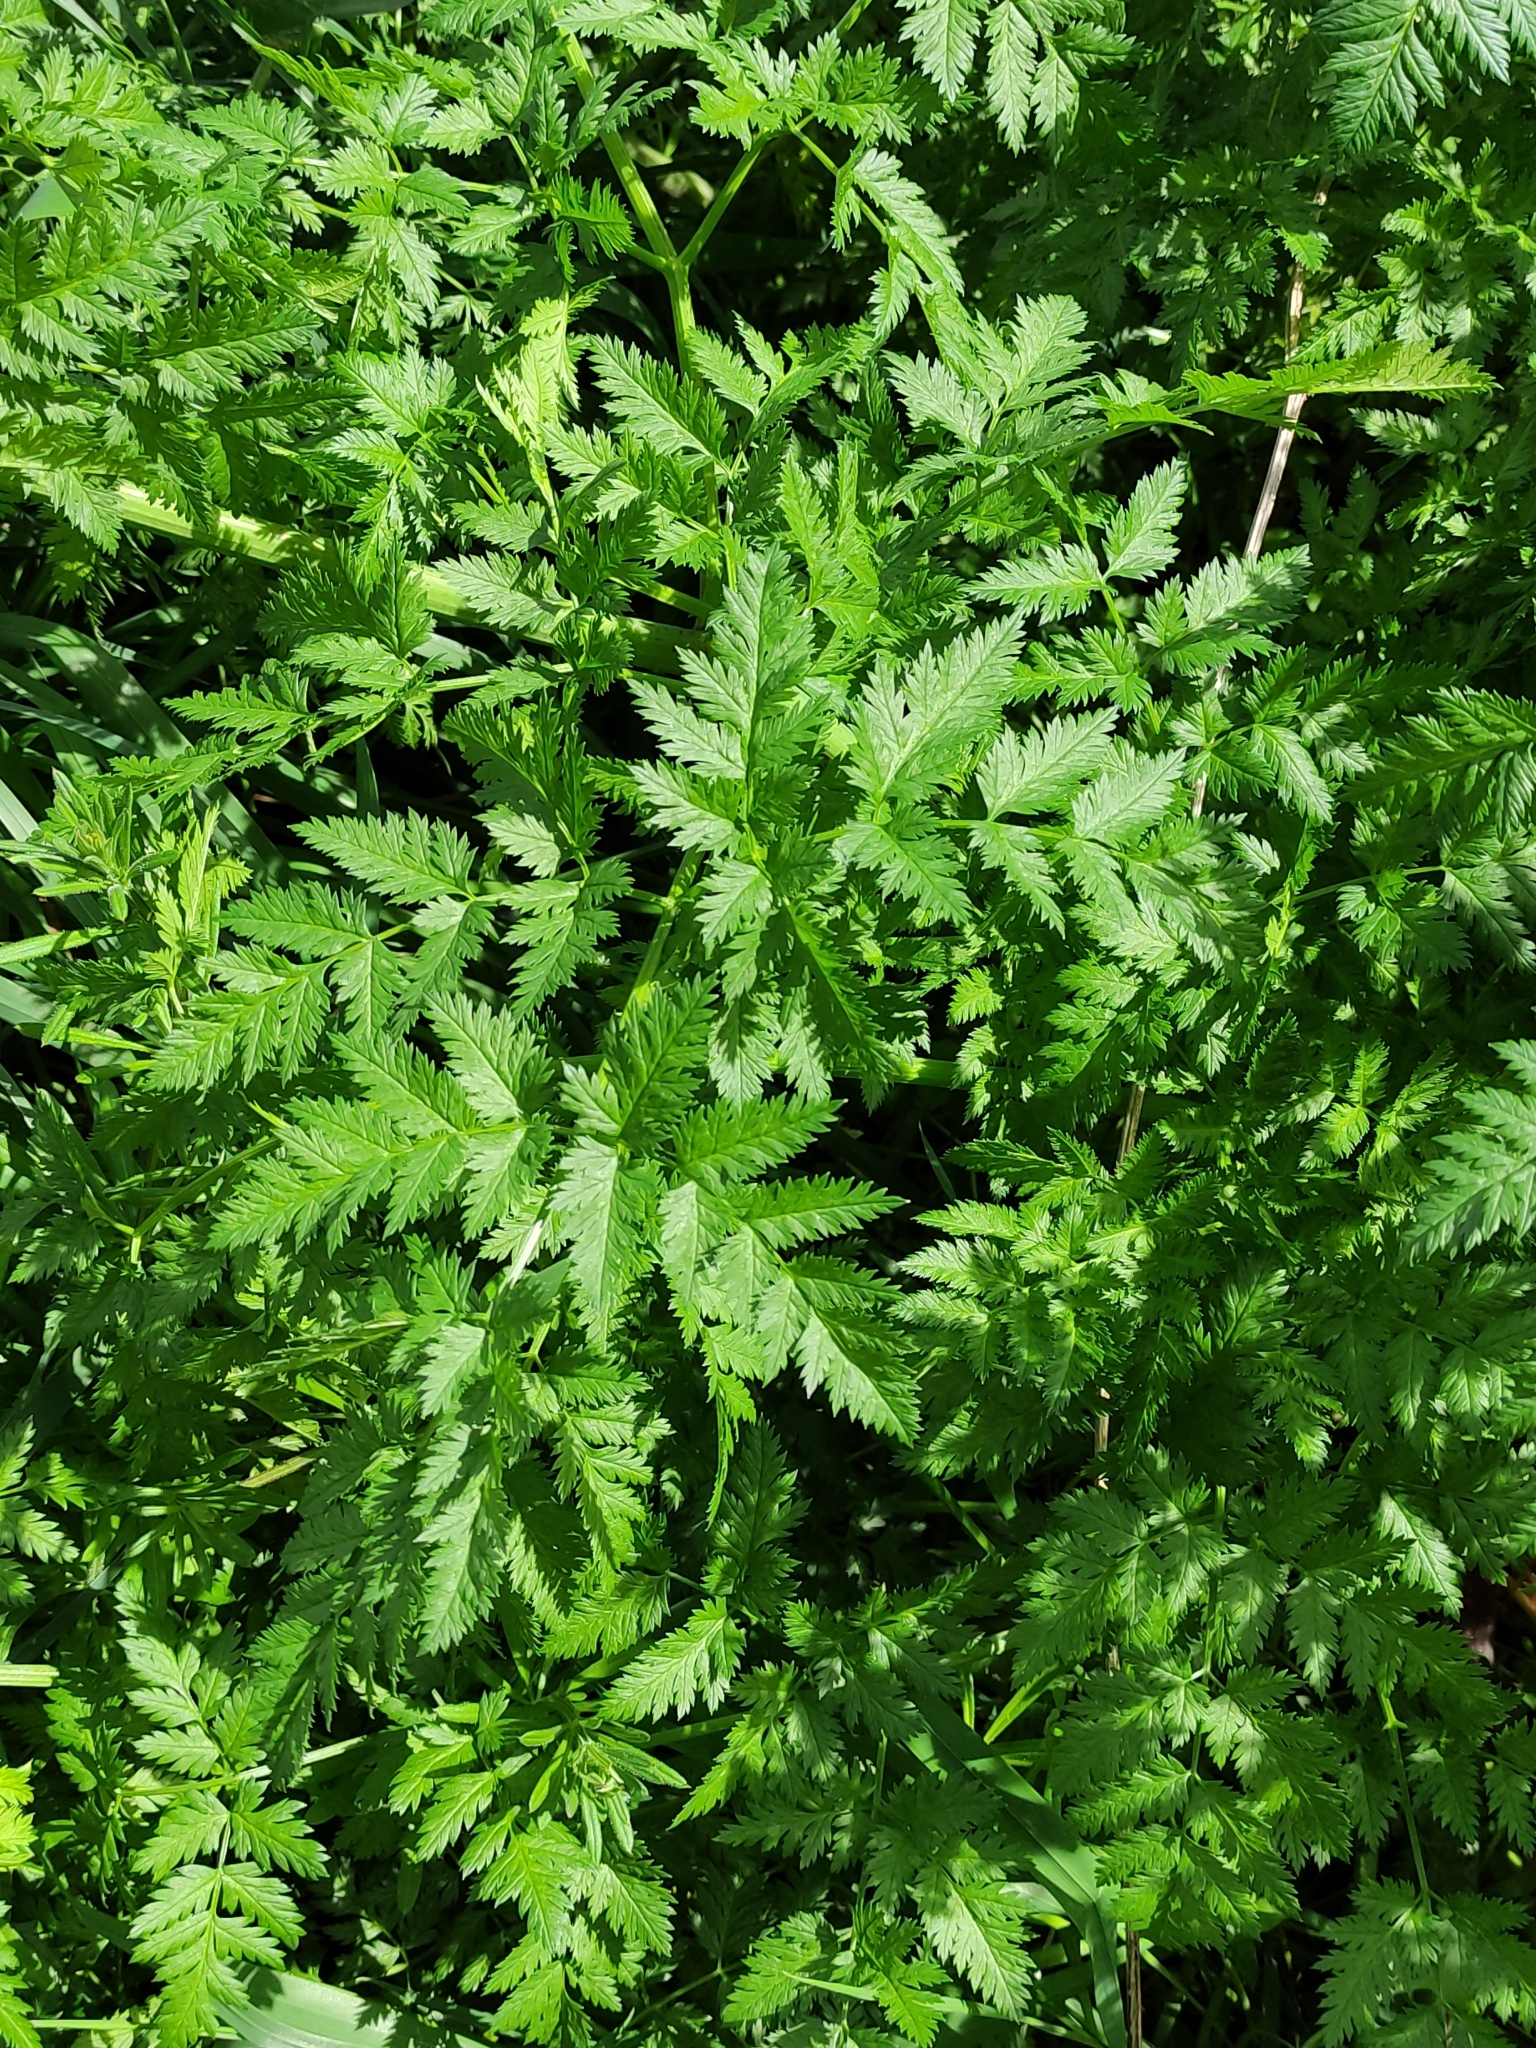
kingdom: Plantae
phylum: Tracheophyta
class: Magnoliopsida
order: Apiales
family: Apiaceae
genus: Conium
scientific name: Conium maculatum
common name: Hemlock
